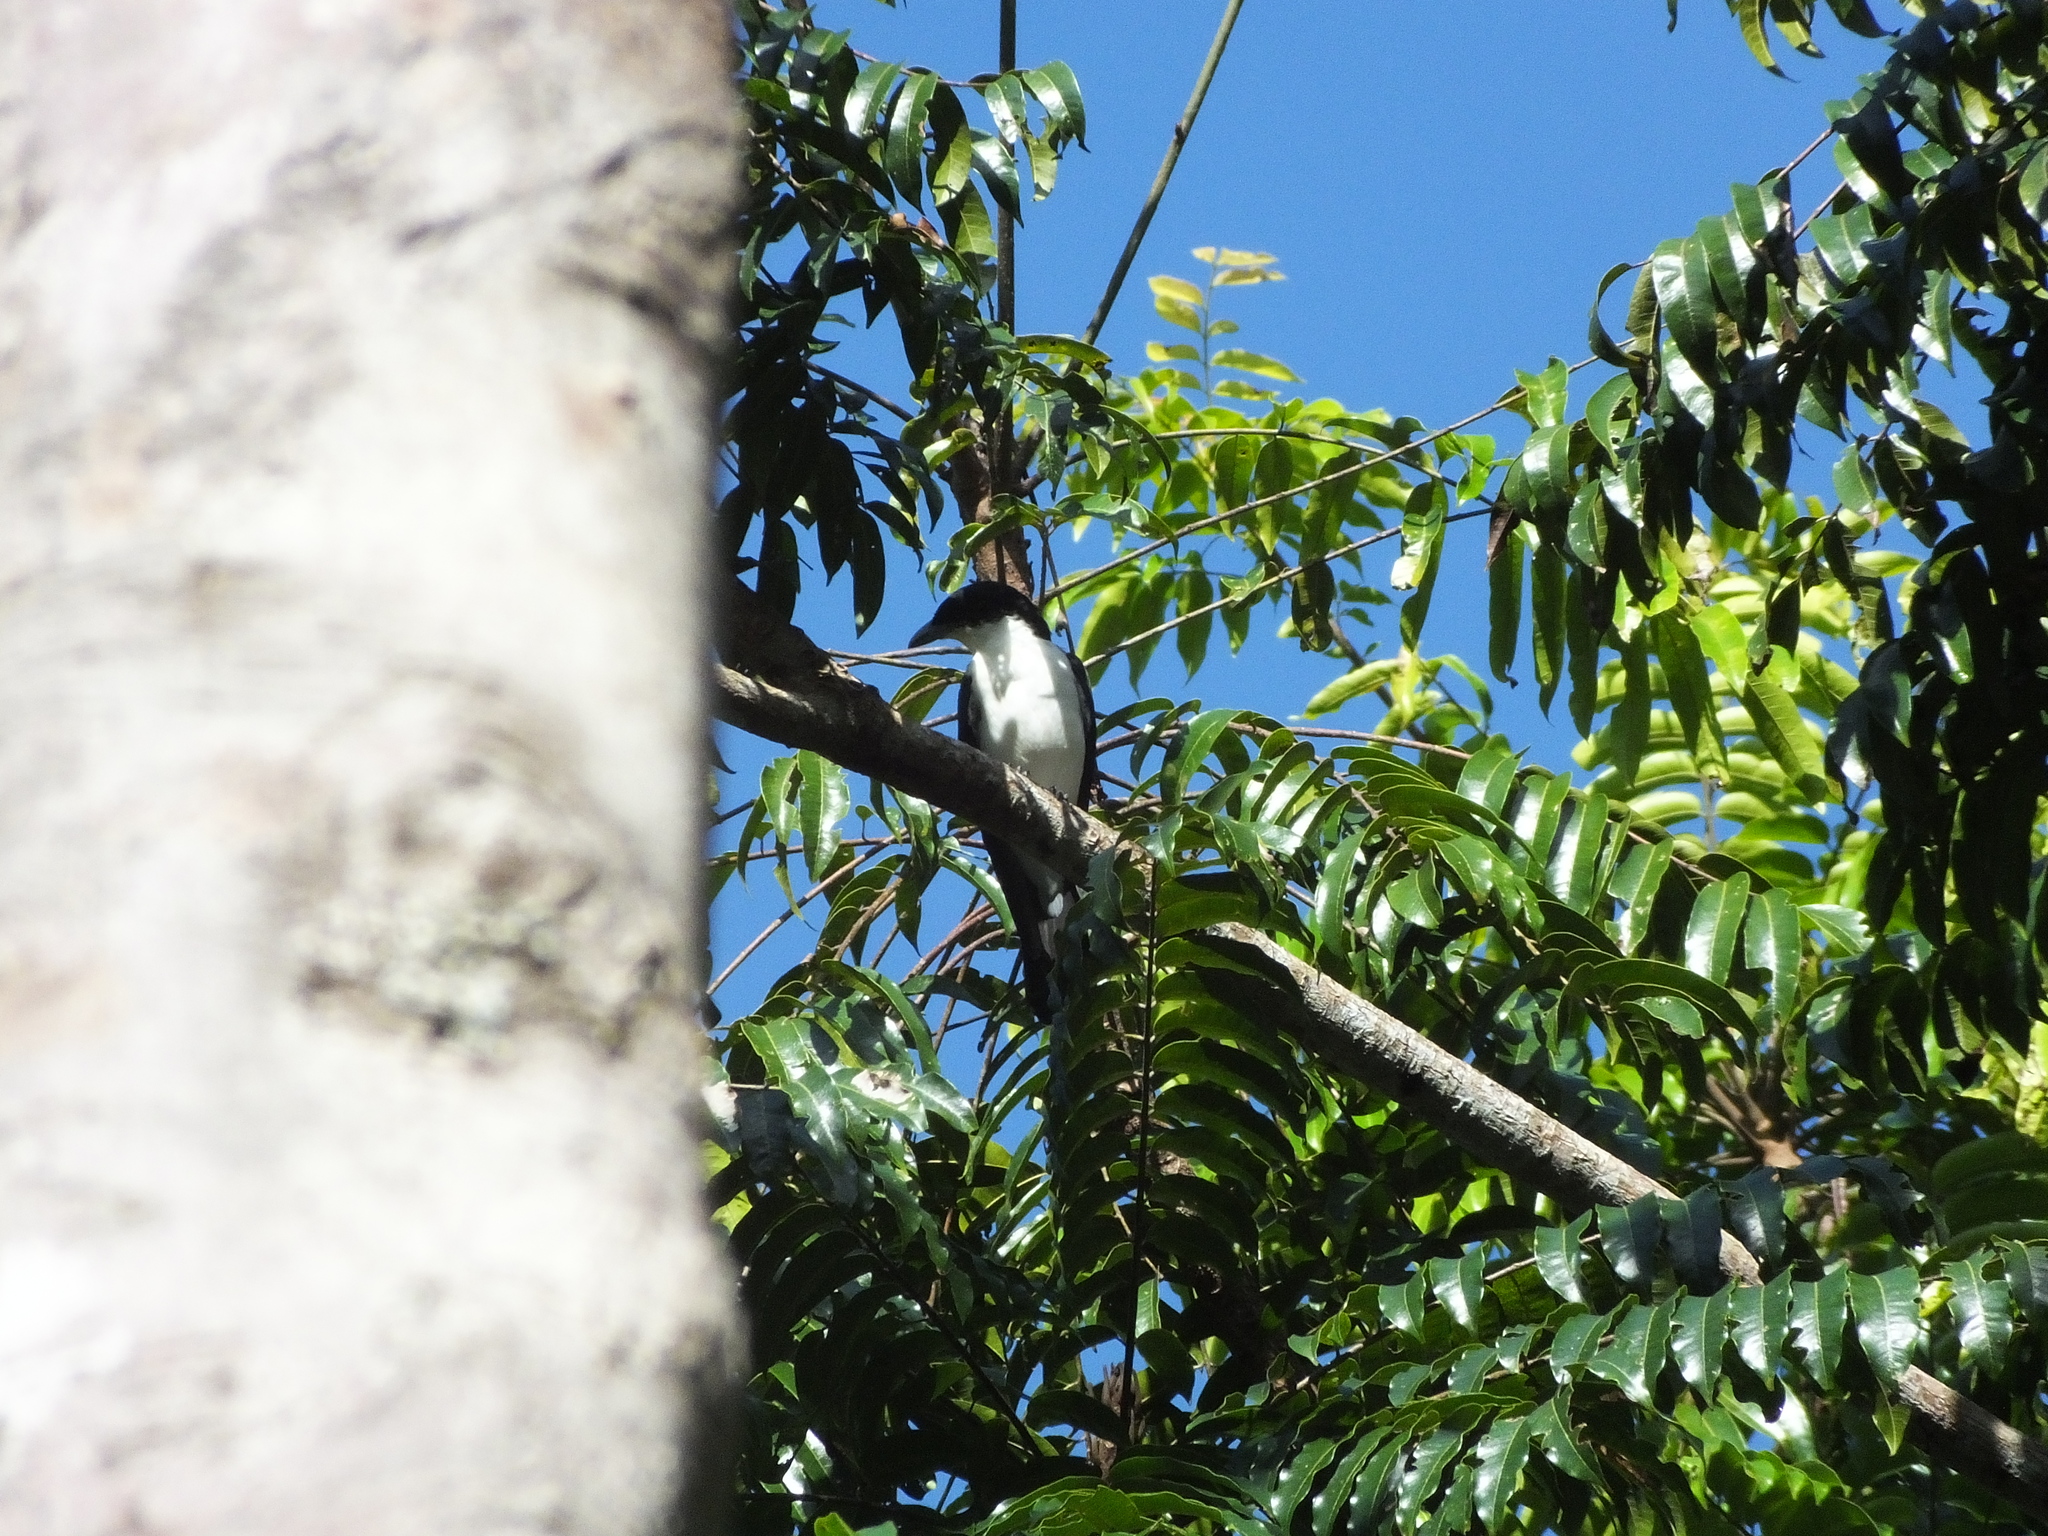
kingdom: Animalia
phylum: Chordata
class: Aves
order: Passeriformes
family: Campephagidae
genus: Coracina
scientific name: Coracina bicolor
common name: Pied cuckooshrike
